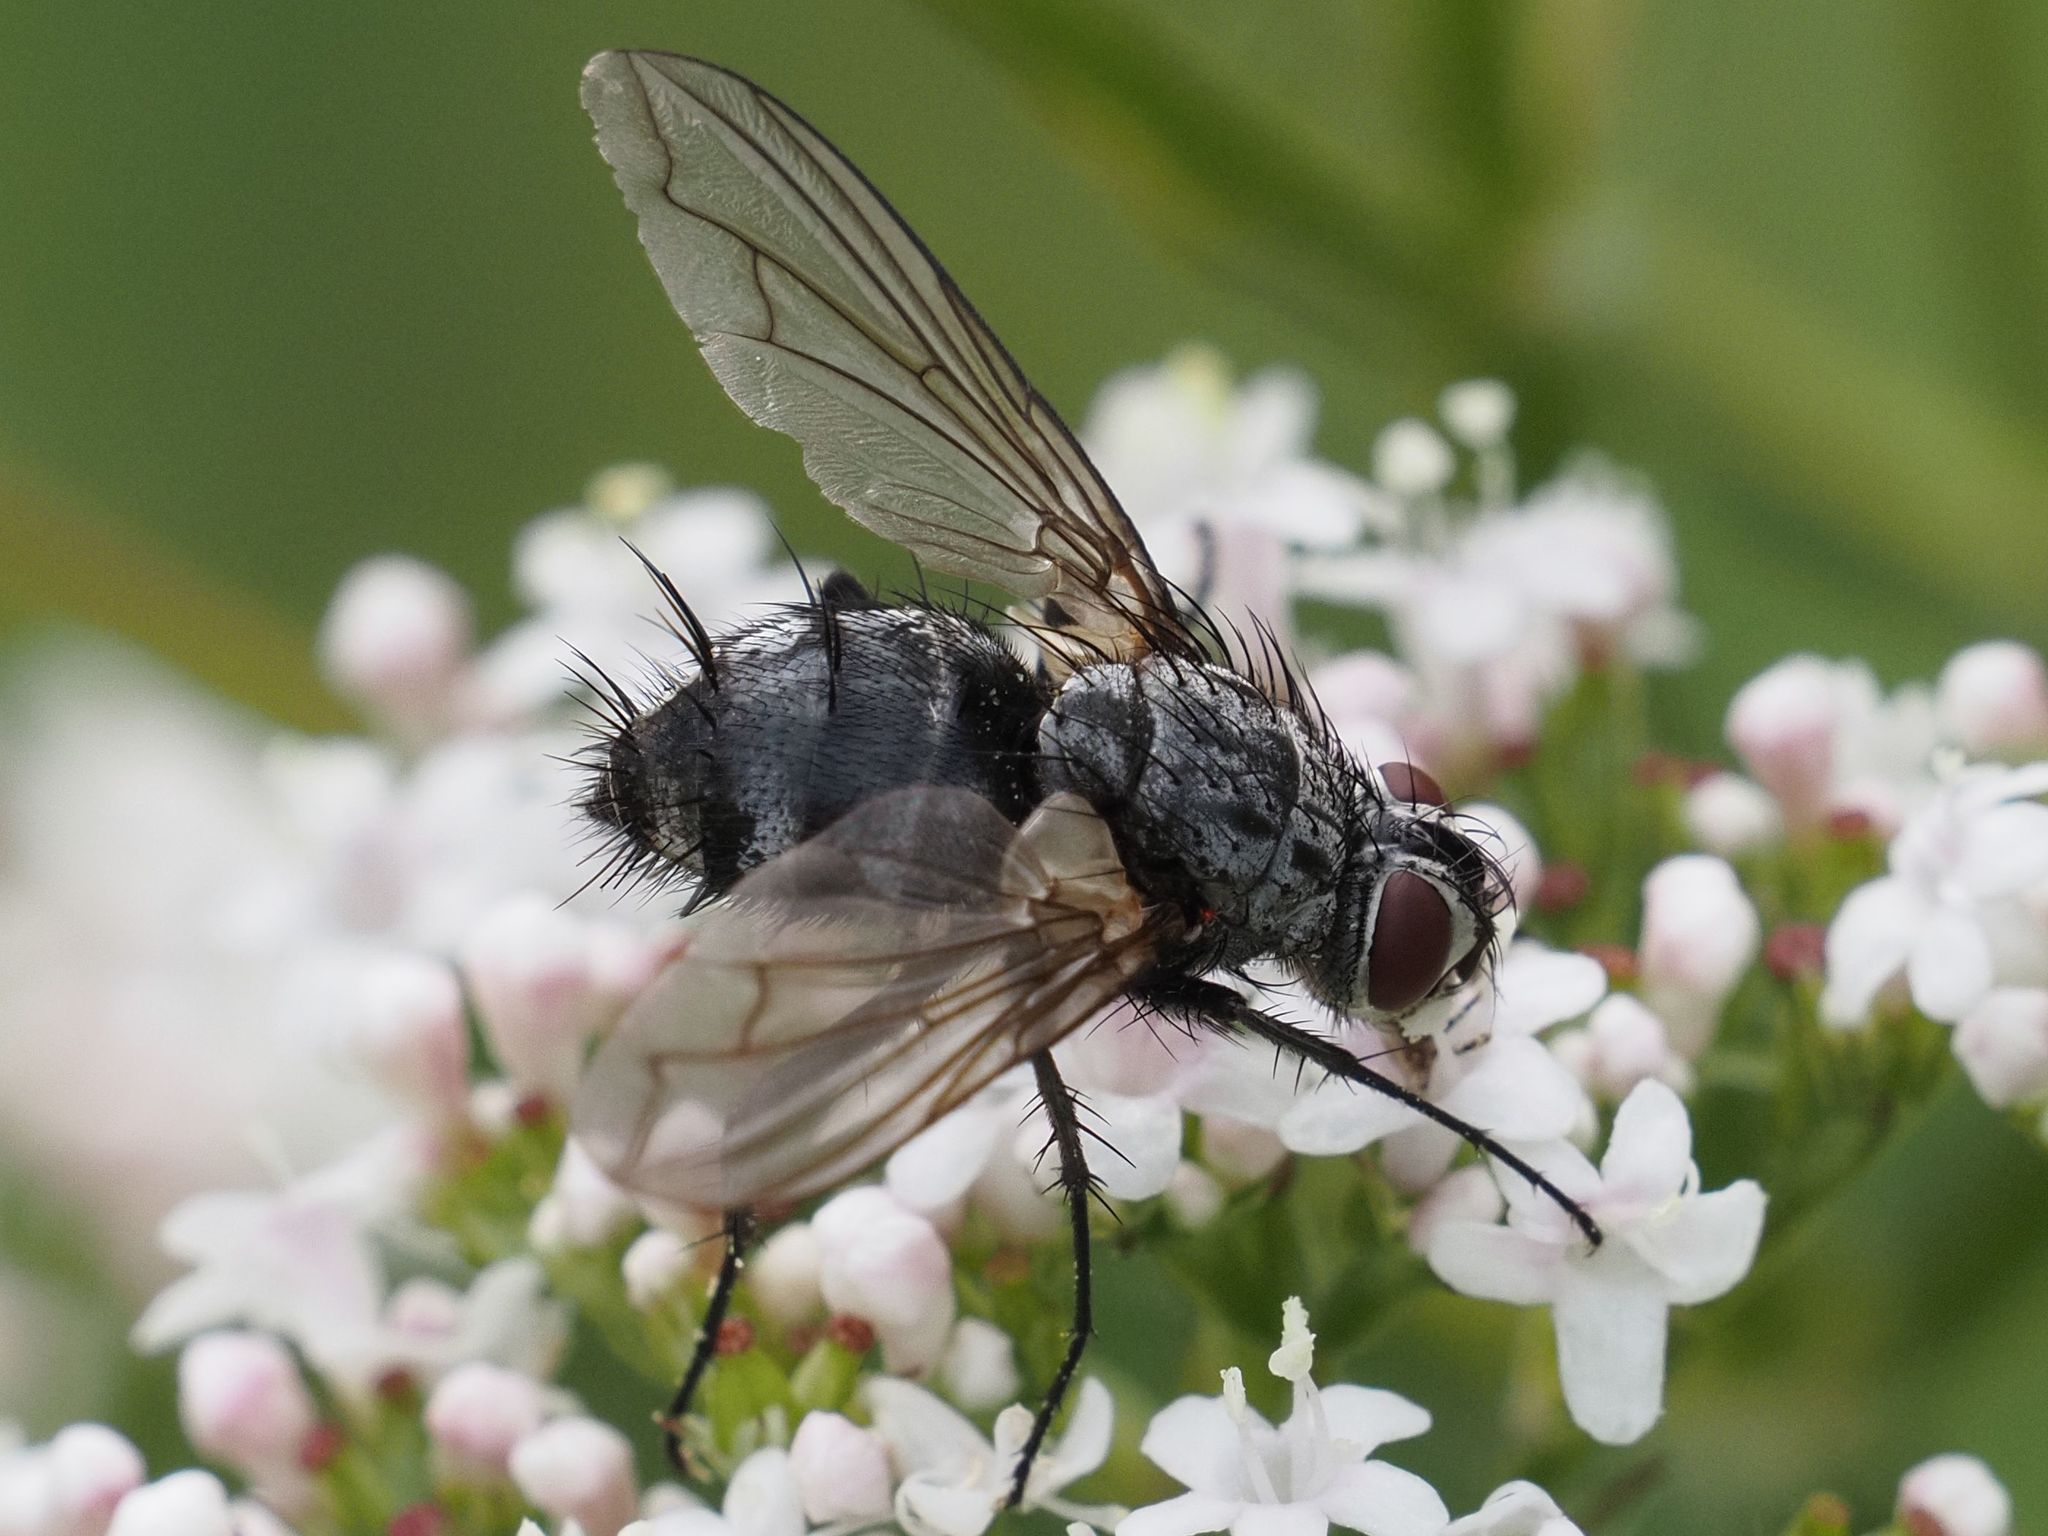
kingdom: Animalia
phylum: Arthropoda
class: Insecta
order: Diptera
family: Tachinidae
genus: Dinera
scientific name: Dinera ferina
